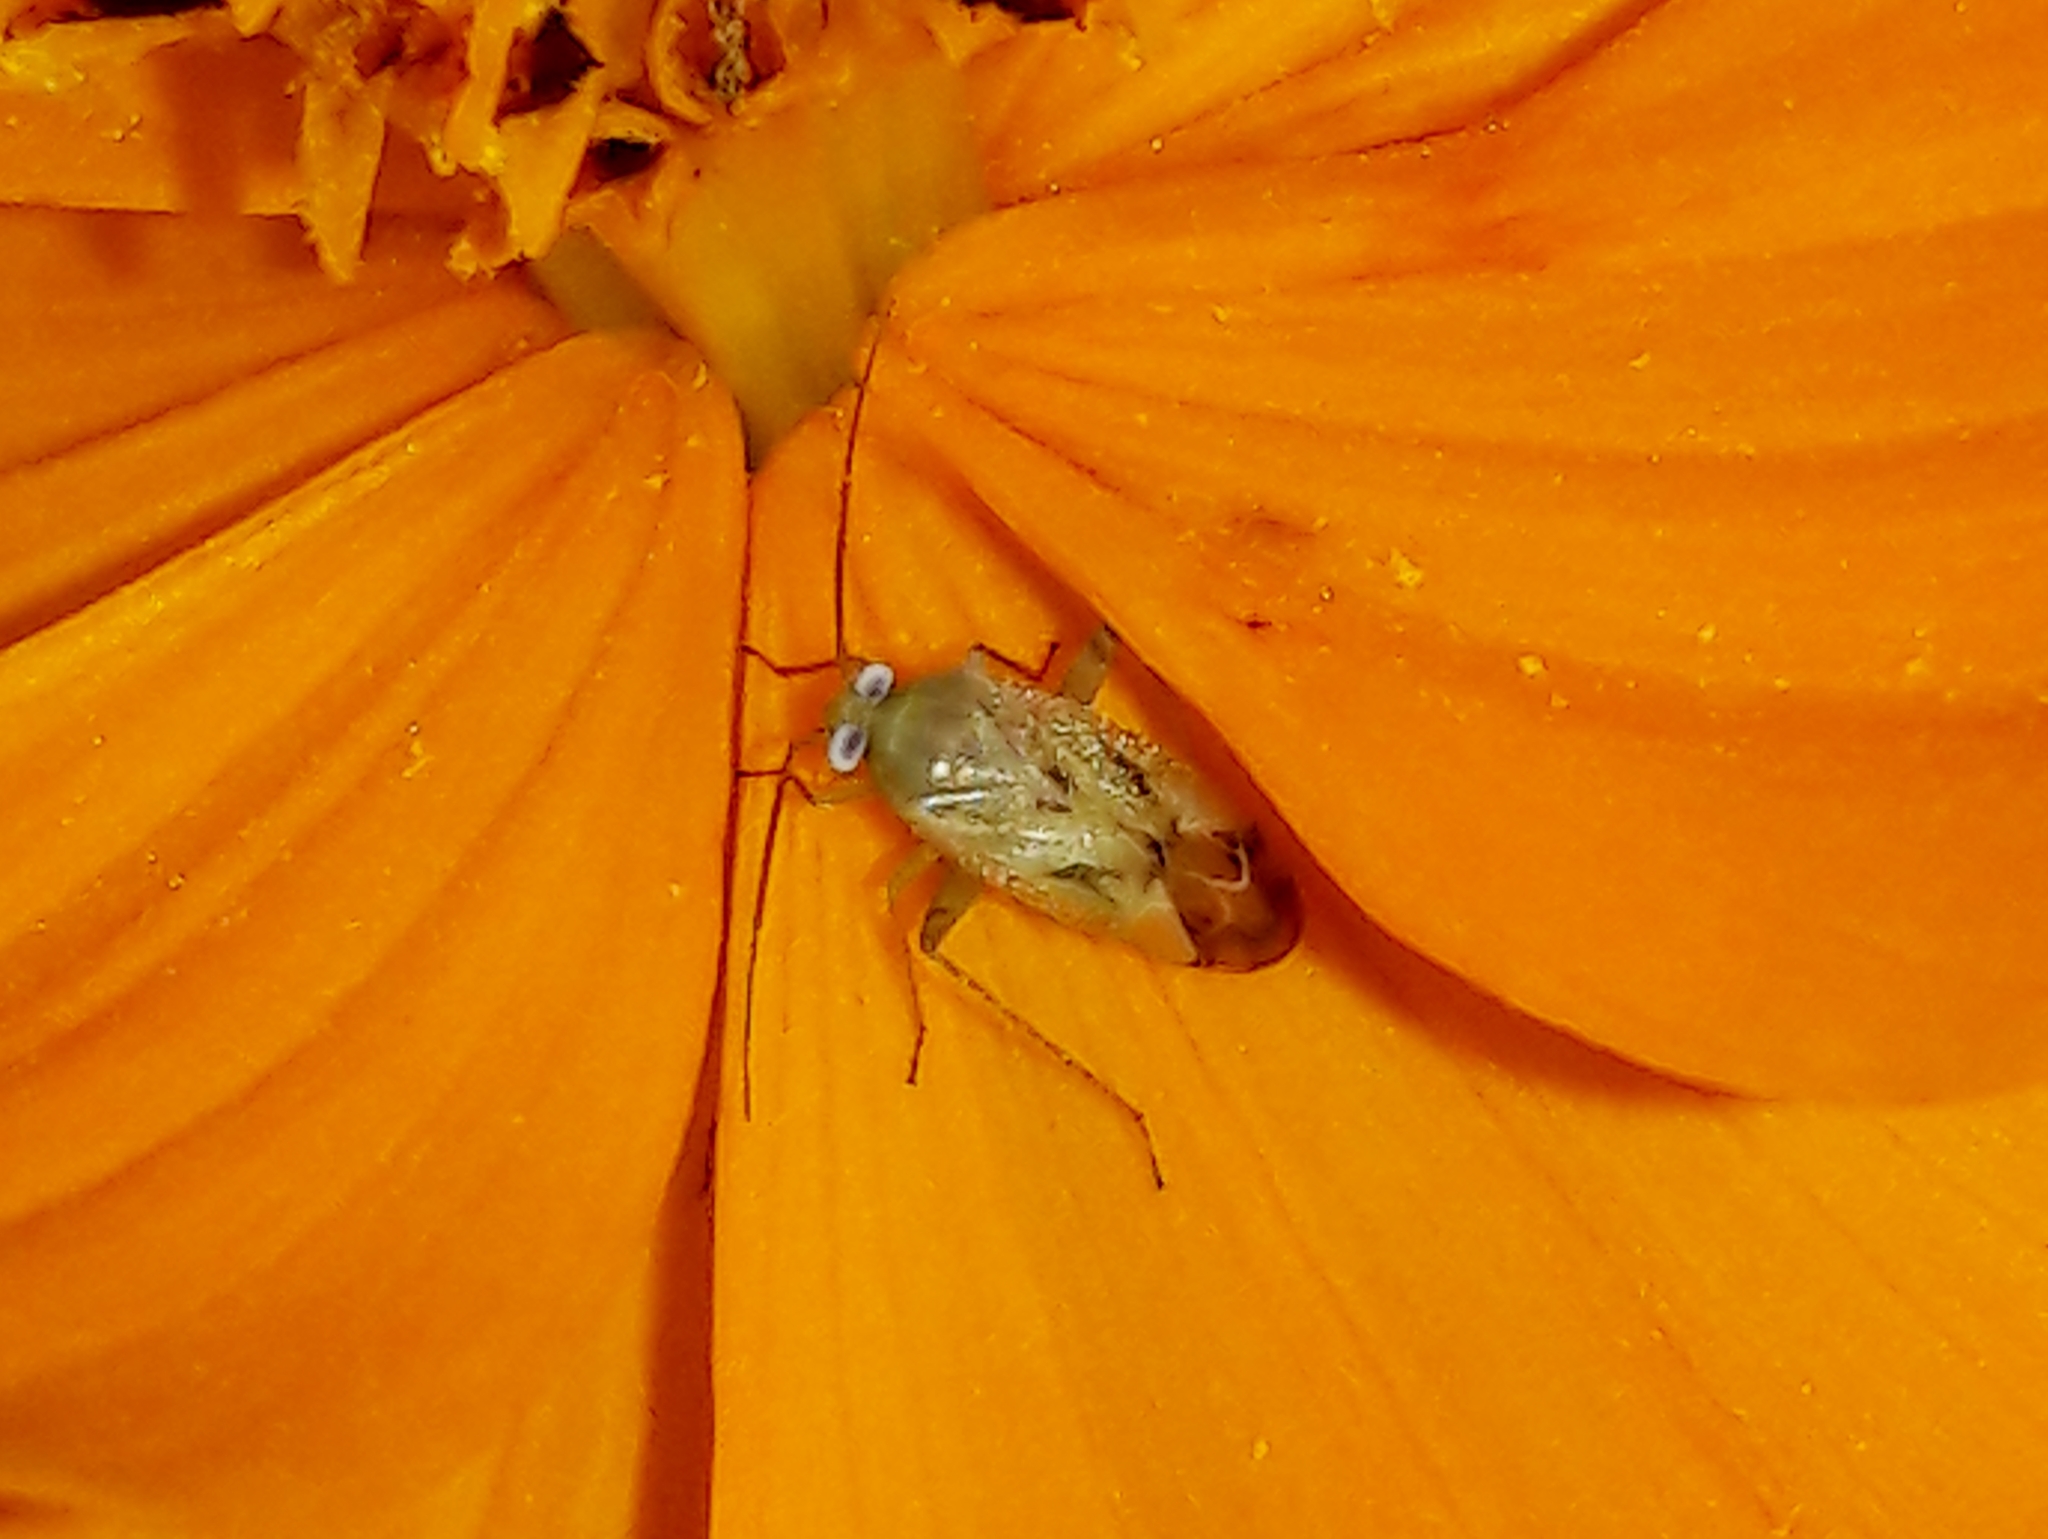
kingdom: Animalia
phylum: Arthropoda
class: Insecta
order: Hemiptera
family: Miridae
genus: Taylorilygus
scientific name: Taylorilygus apicalis
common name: Plant bug
